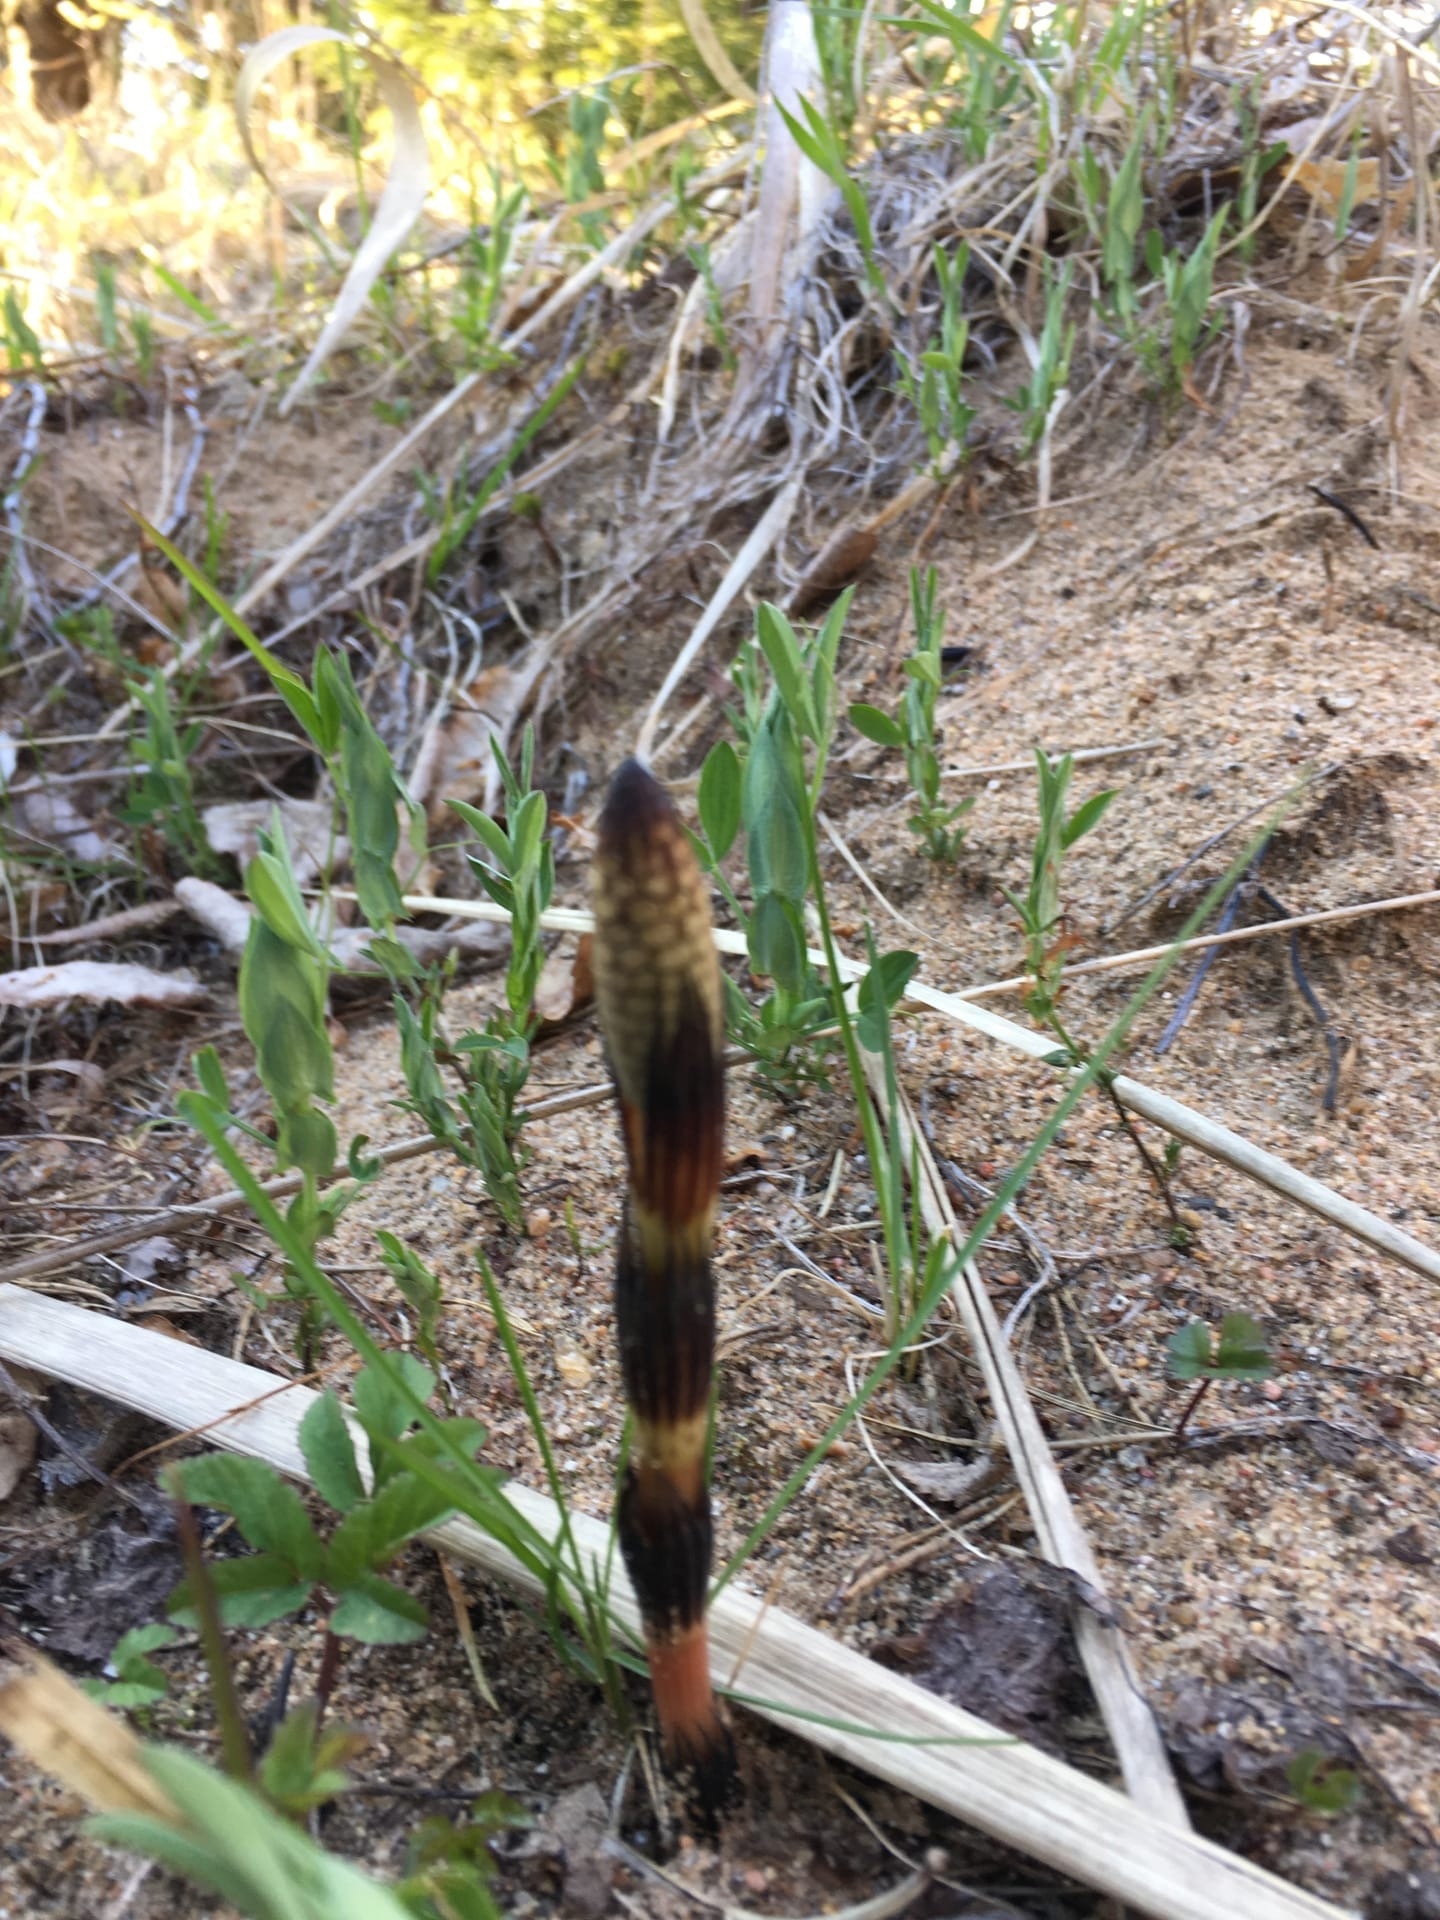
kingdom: Plantae
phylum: Tracheophyta
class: Polypodiopsida
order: Equisetales
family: Equisetaceae
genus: Equisetum
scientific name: Equisetum arvense
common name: Field horsetail
